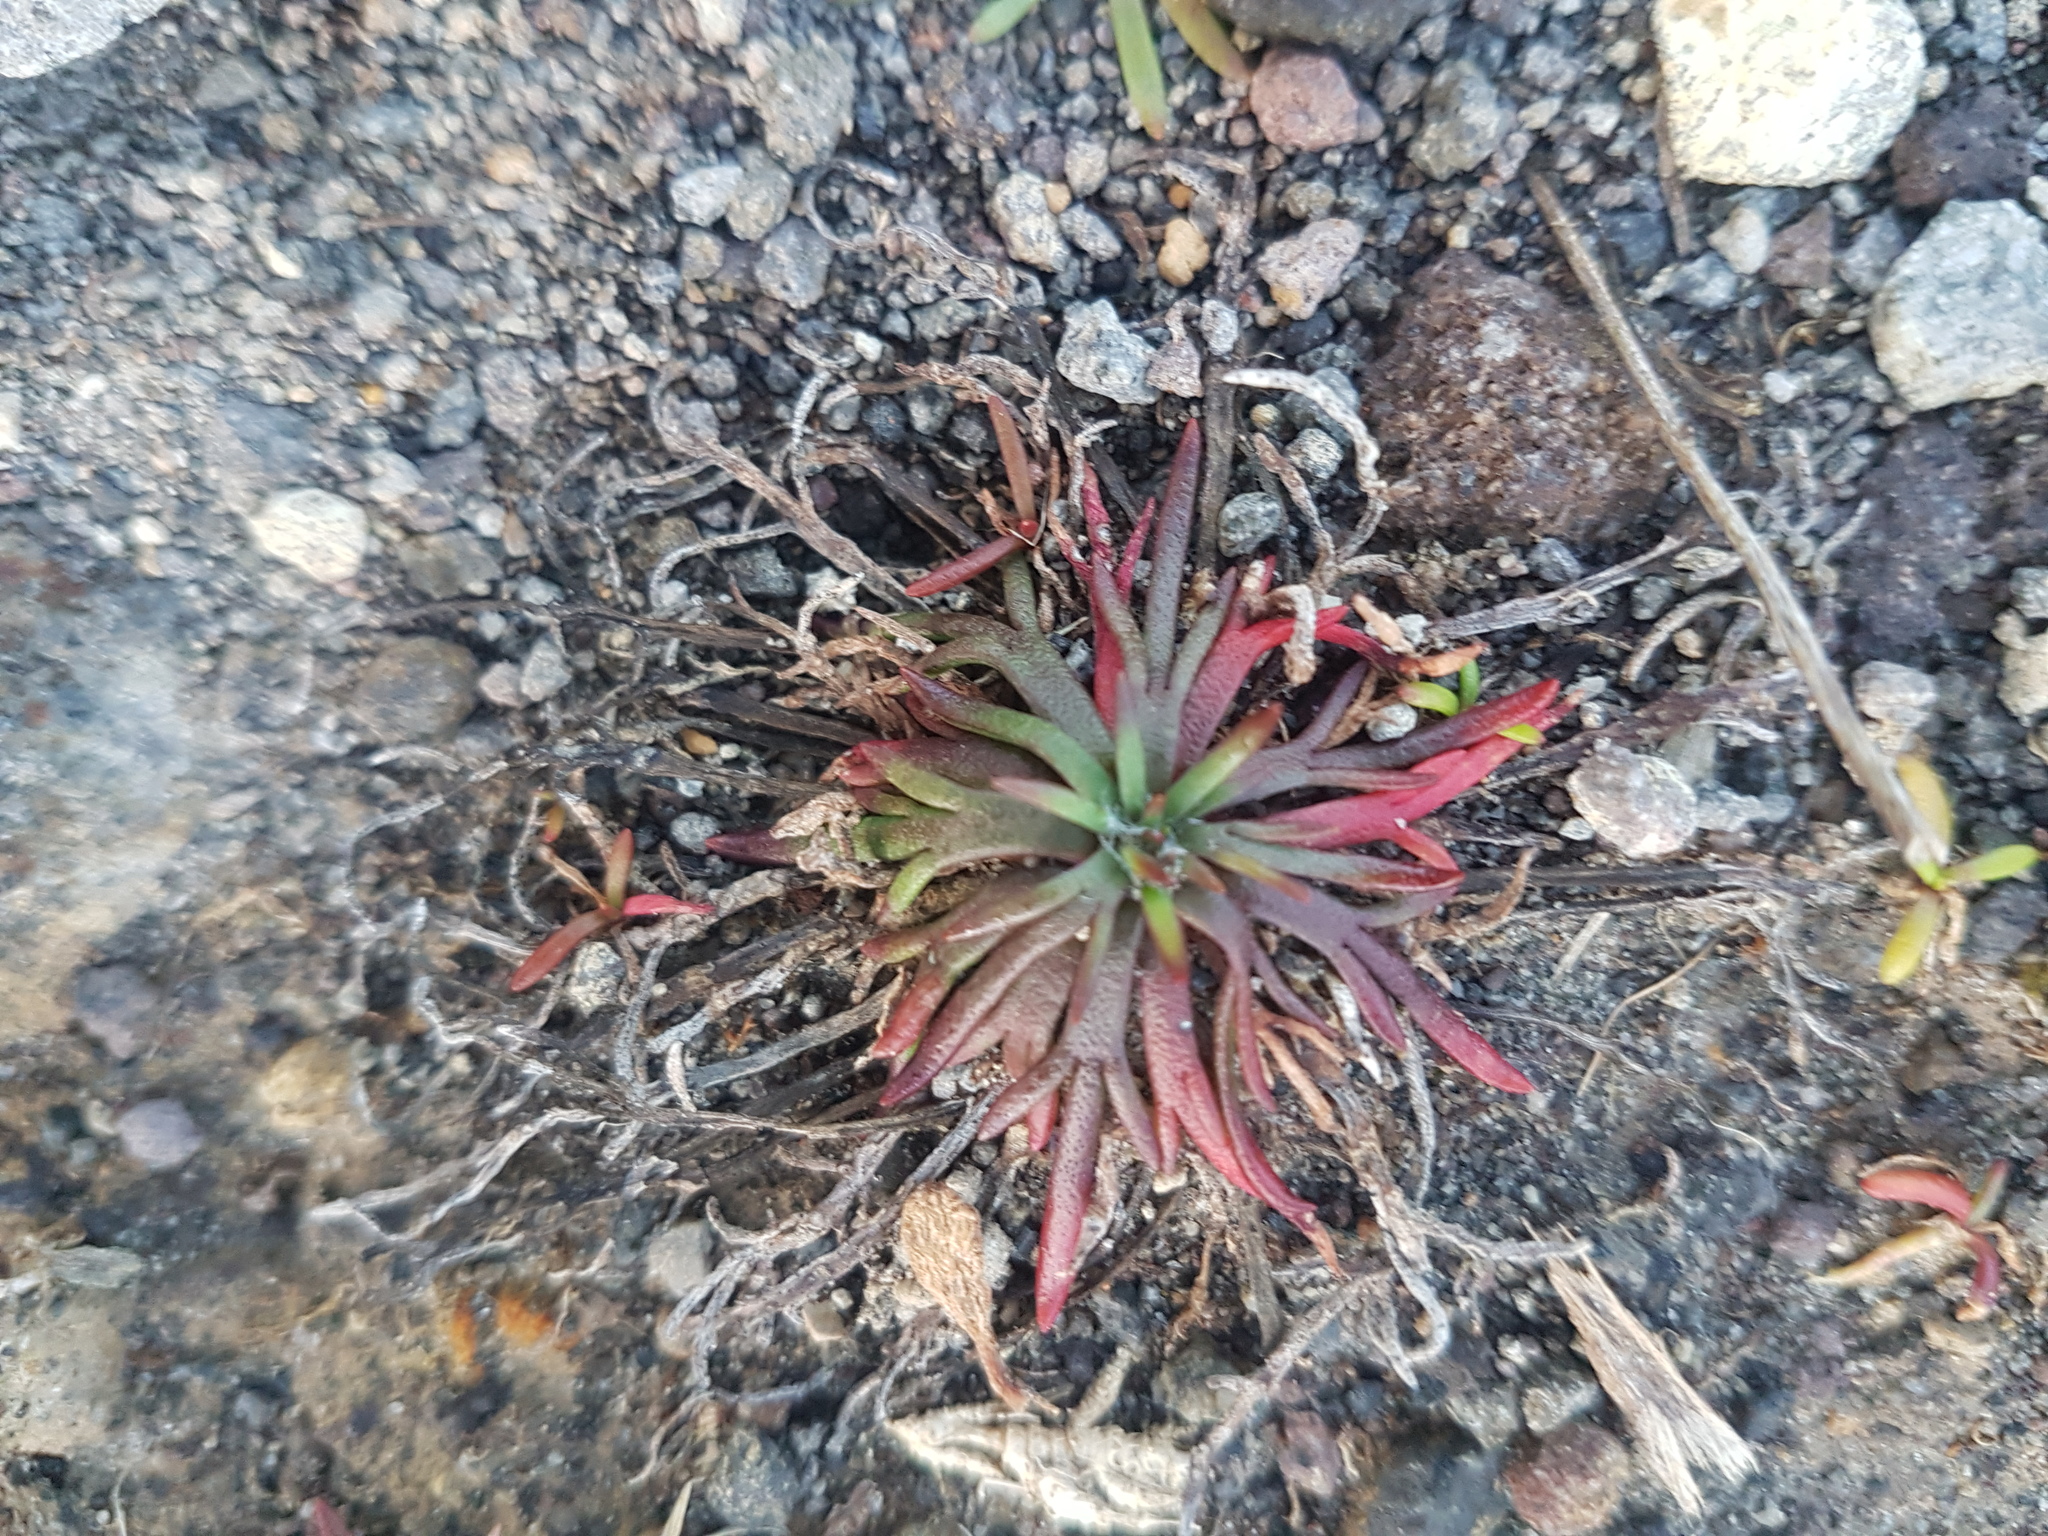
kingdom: Plantae
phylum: Tracheophyta
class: Magnoliopsida
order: Lamiales
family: Plantaginaceae
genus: Plantago
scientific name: Plantago coronopus
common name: Buck's-horn plantain
